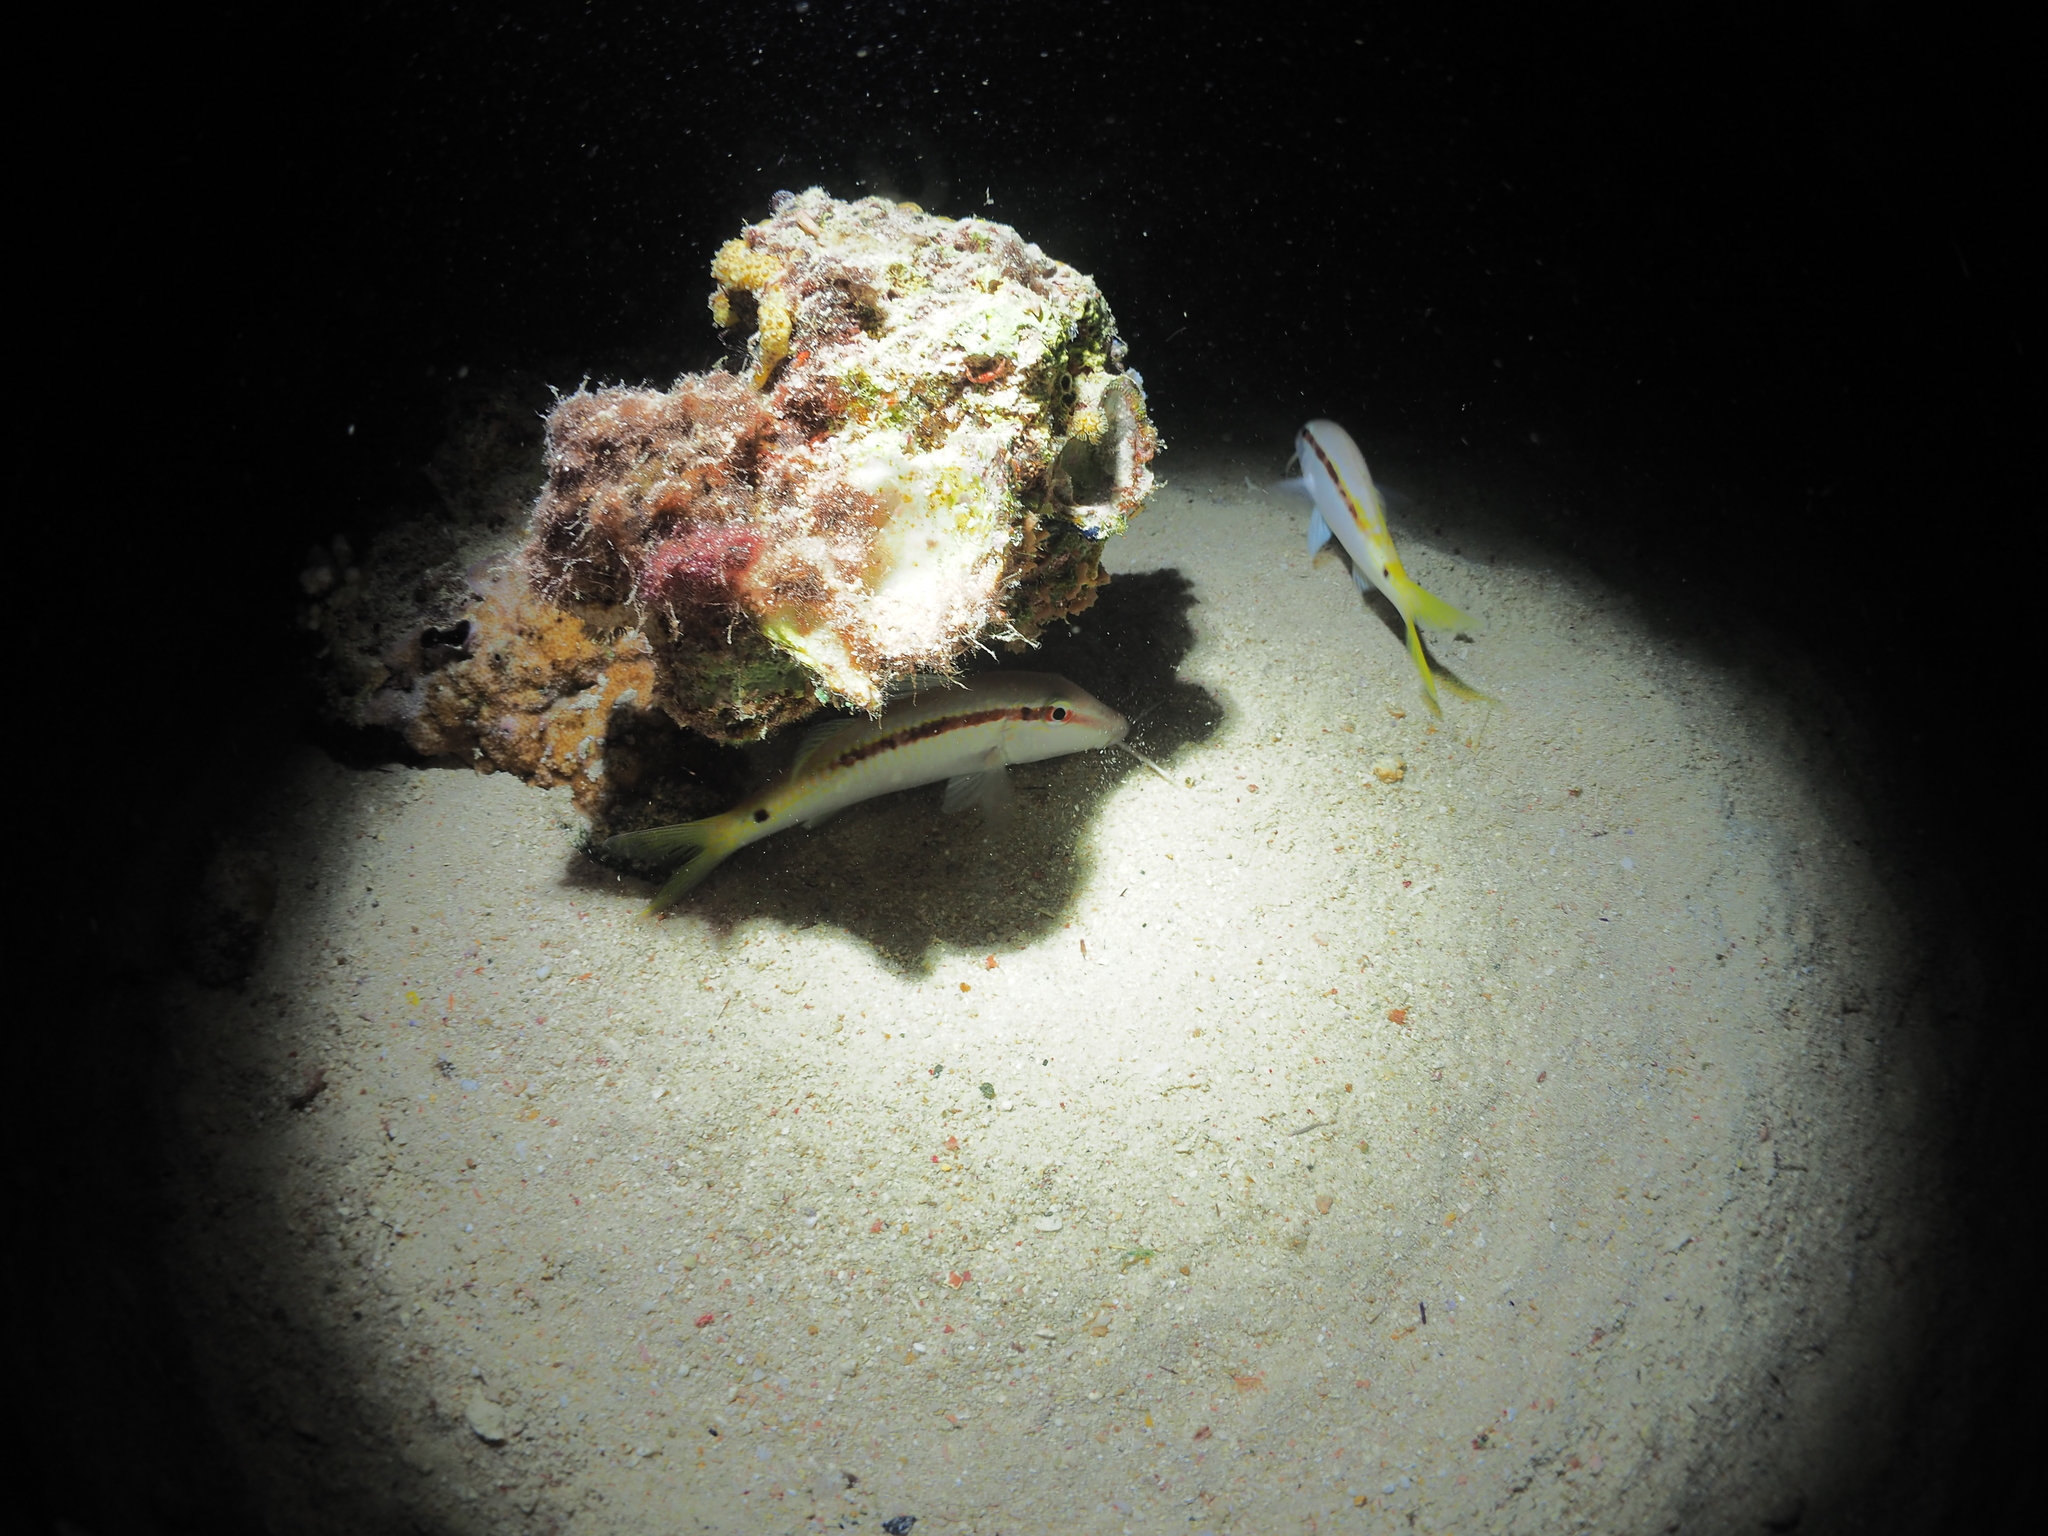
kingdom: Animalia
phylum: Chordata
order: Perciformes
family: Mullidae
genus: Parupeneus
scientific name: Parupeneus forsskali
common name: Red sea goatfish
